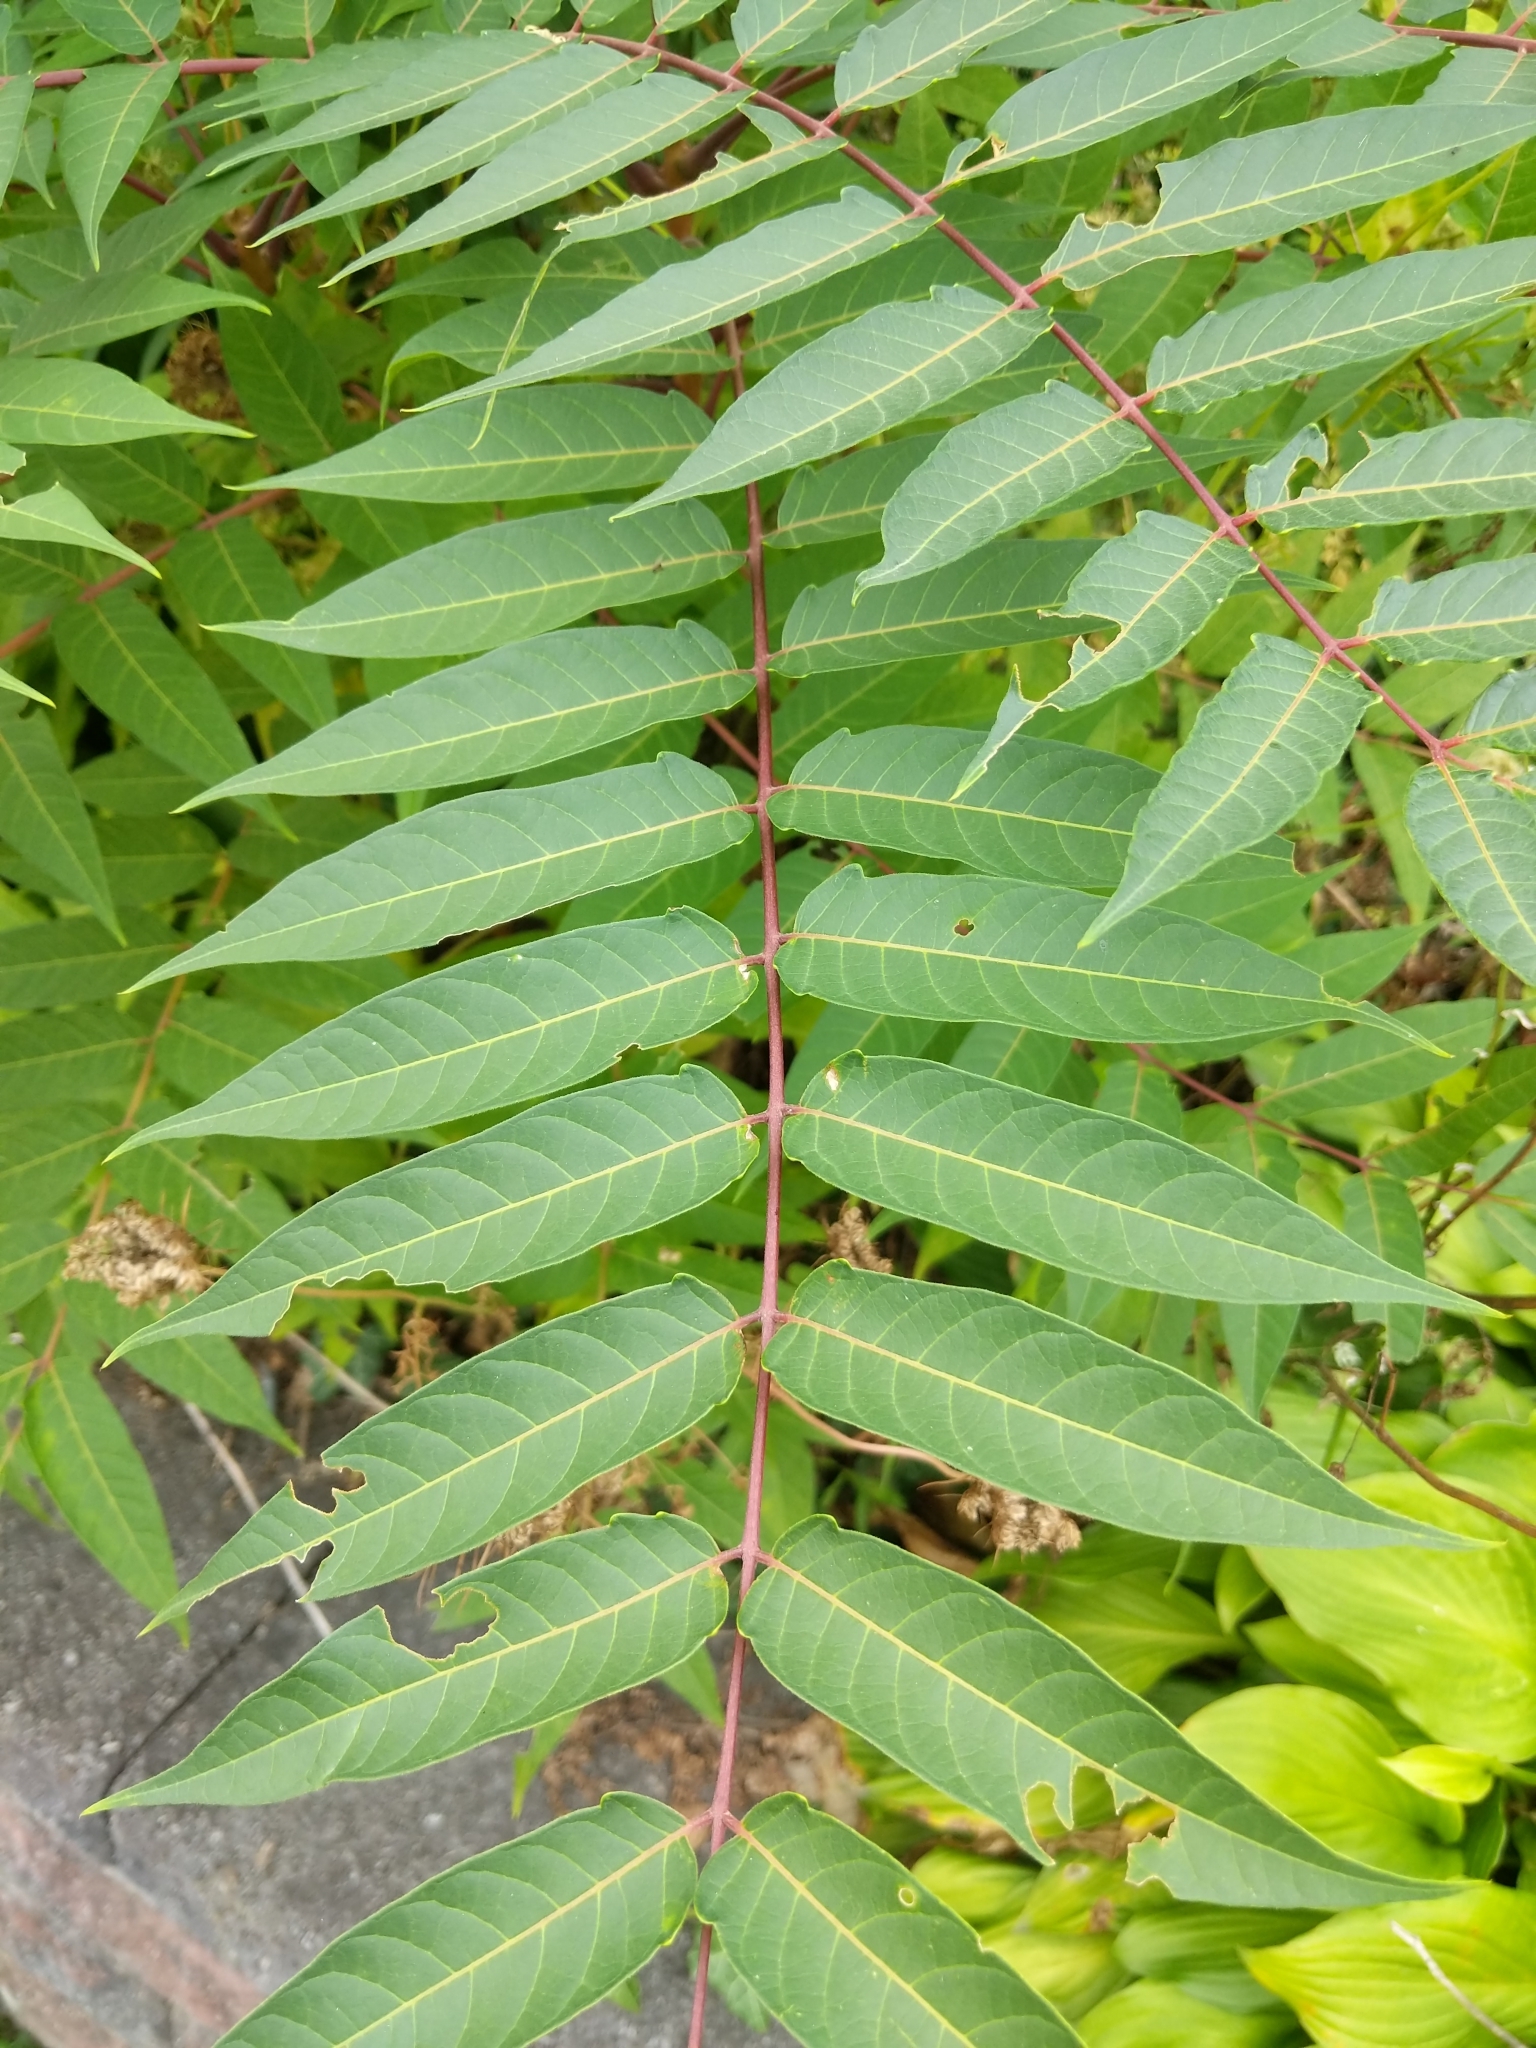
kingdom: Plantae
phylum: Tracheophyta
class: Magnoliopsida
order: Sapindales
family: Simaroubaceae
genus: Ailanthus
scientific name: Ailanthus altissima
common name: Tree-of-heaven
